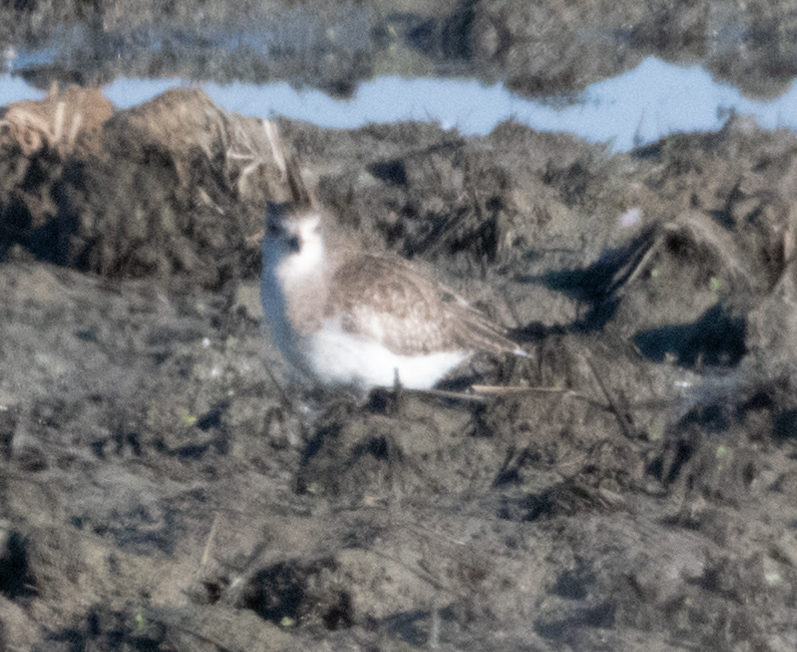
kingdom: Animalia
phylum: Chordata
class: Aves
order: Charadriiformes
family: Charadriidae
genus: Pluvialis
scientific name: Pluvialis squatarola
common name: Grey plover
